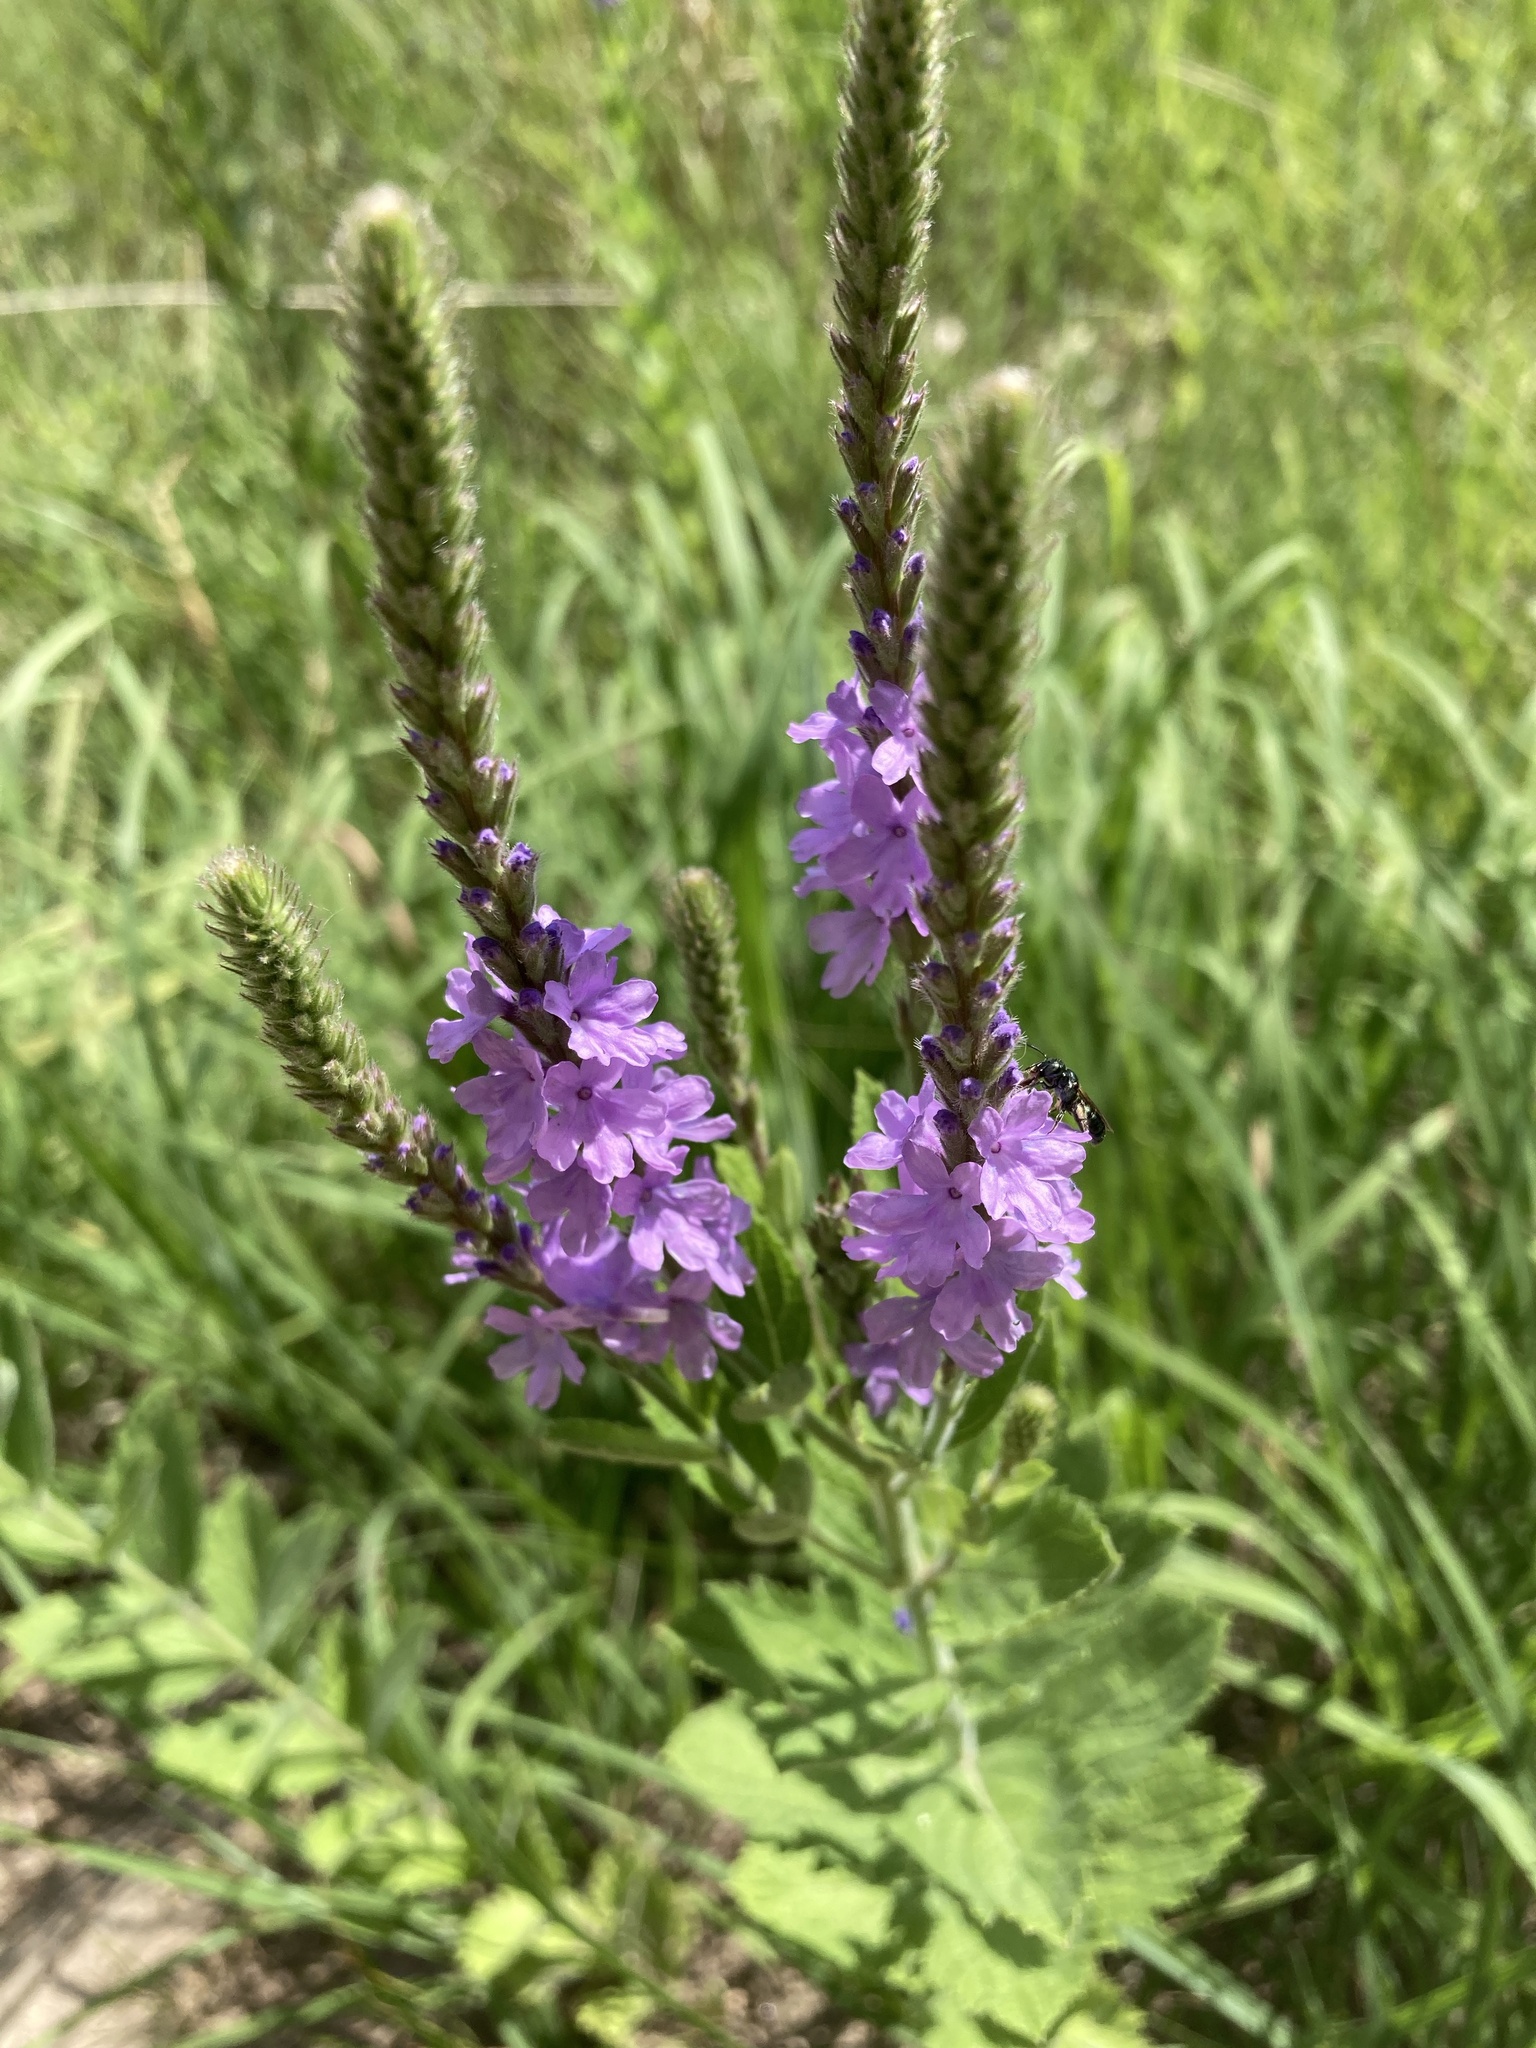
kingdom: Plantae
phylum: Tracheophyta
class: Magnoliopsida
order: Lamiales
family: Verbenaceae
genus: Verbena
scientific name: Verbena stricta
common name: Hoary vervain
